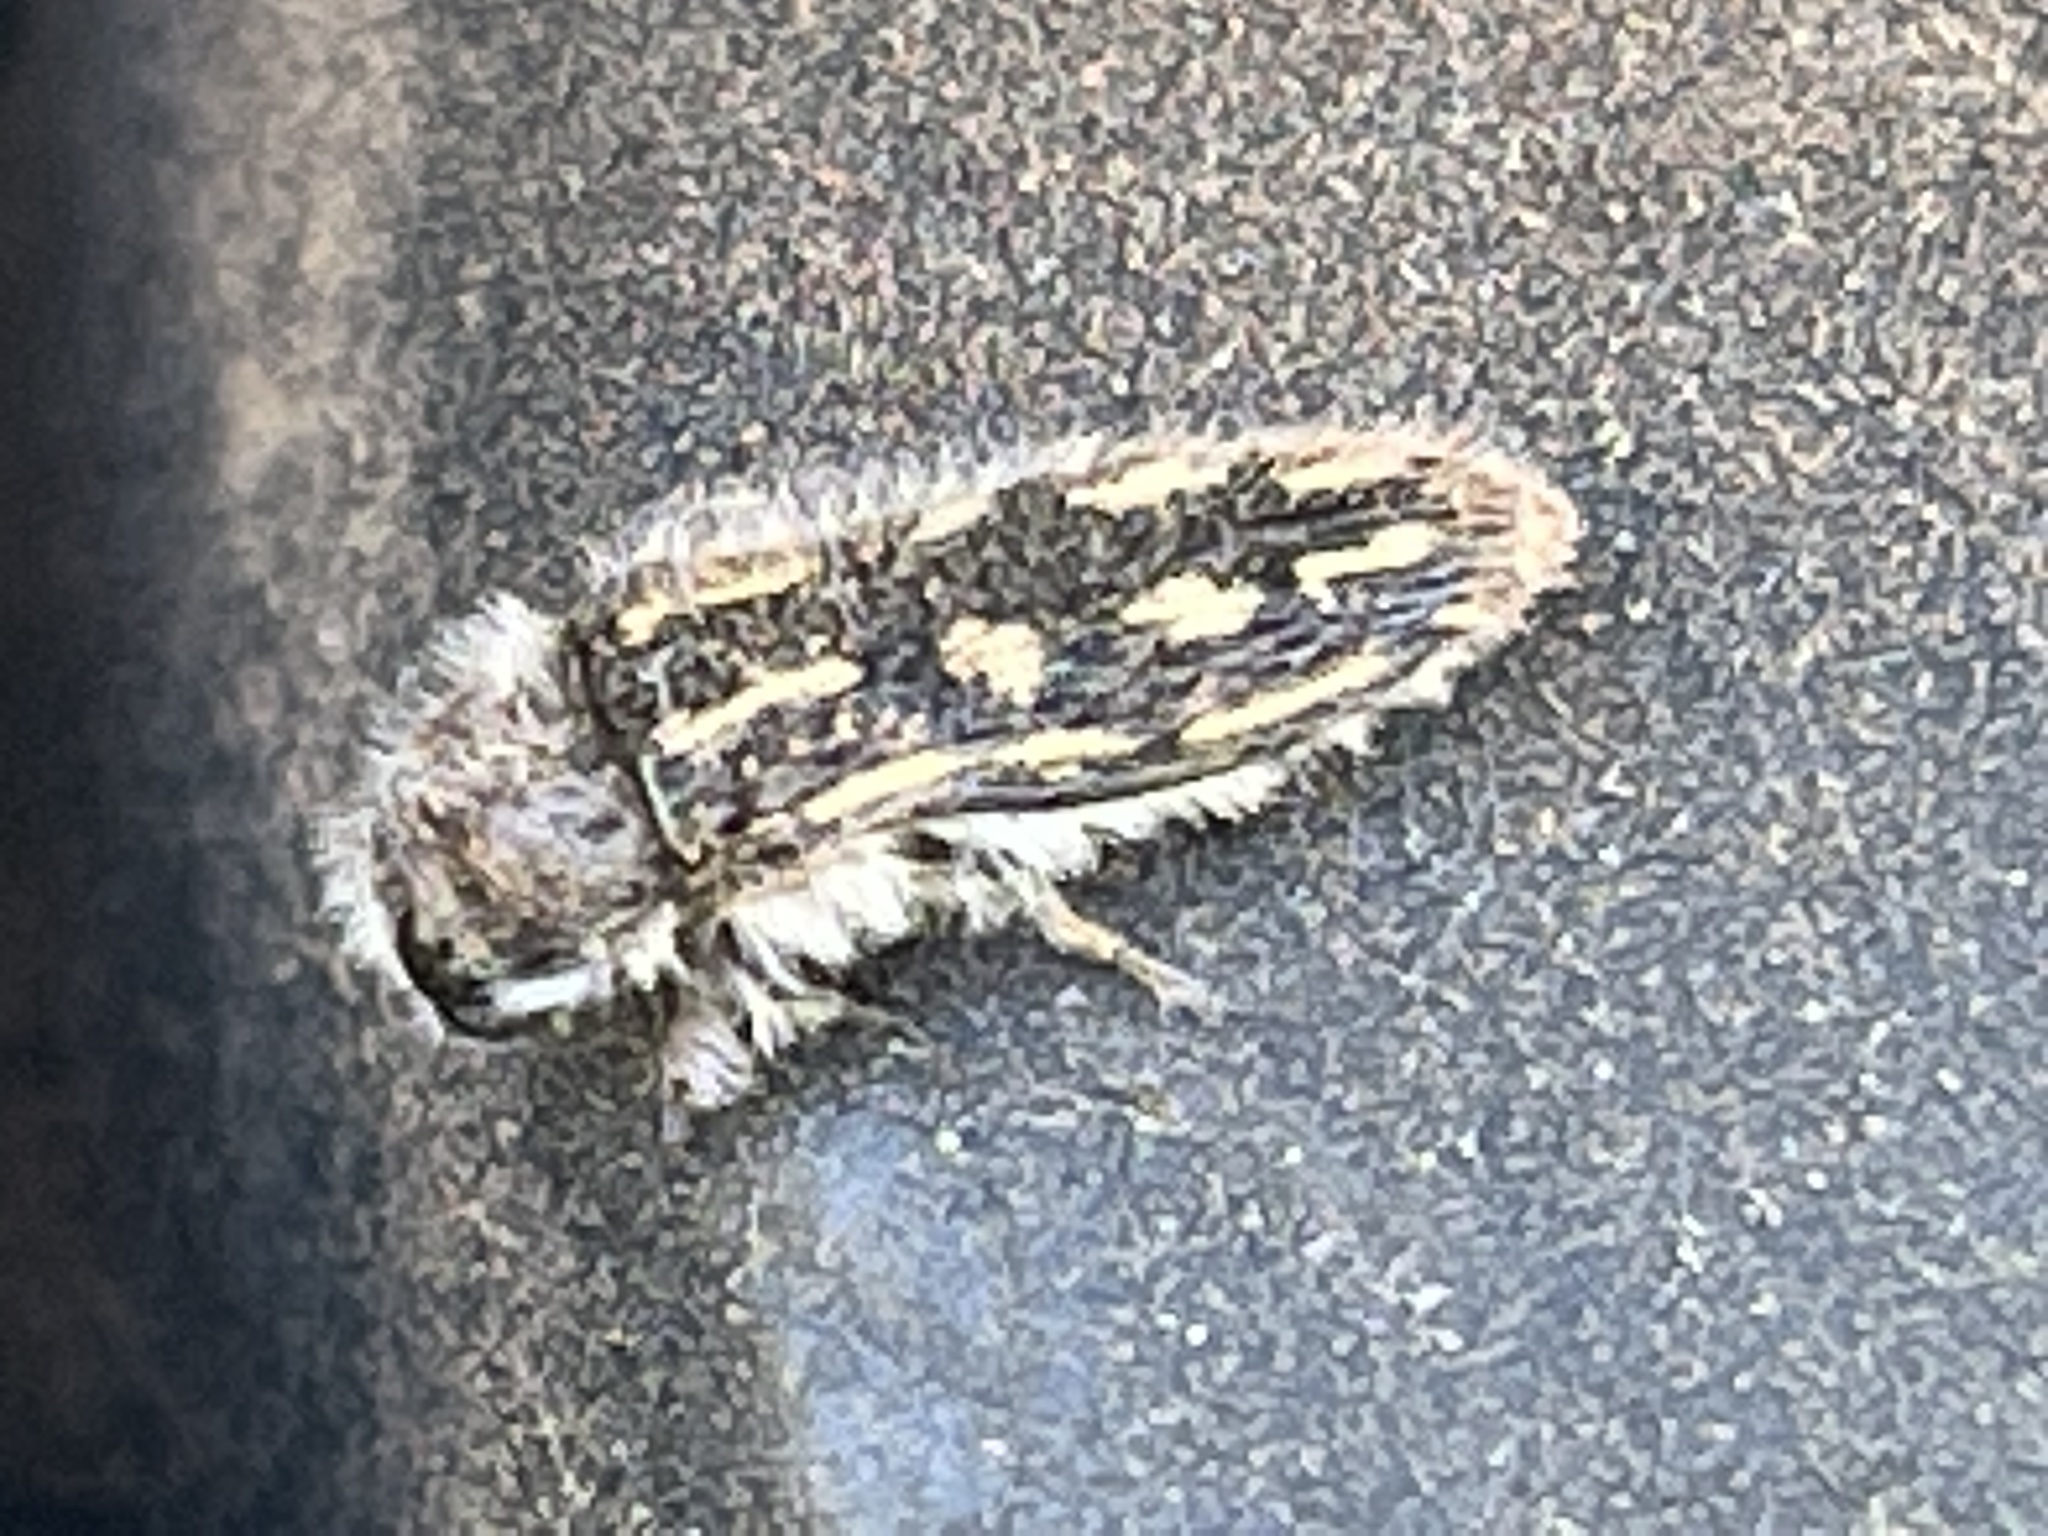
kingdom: Animalia
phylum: Arthropoda
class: Insecta
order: Coleoptera
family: Buprestidae
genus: Acmaeodera
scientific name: Acmaeodera pubiventris
